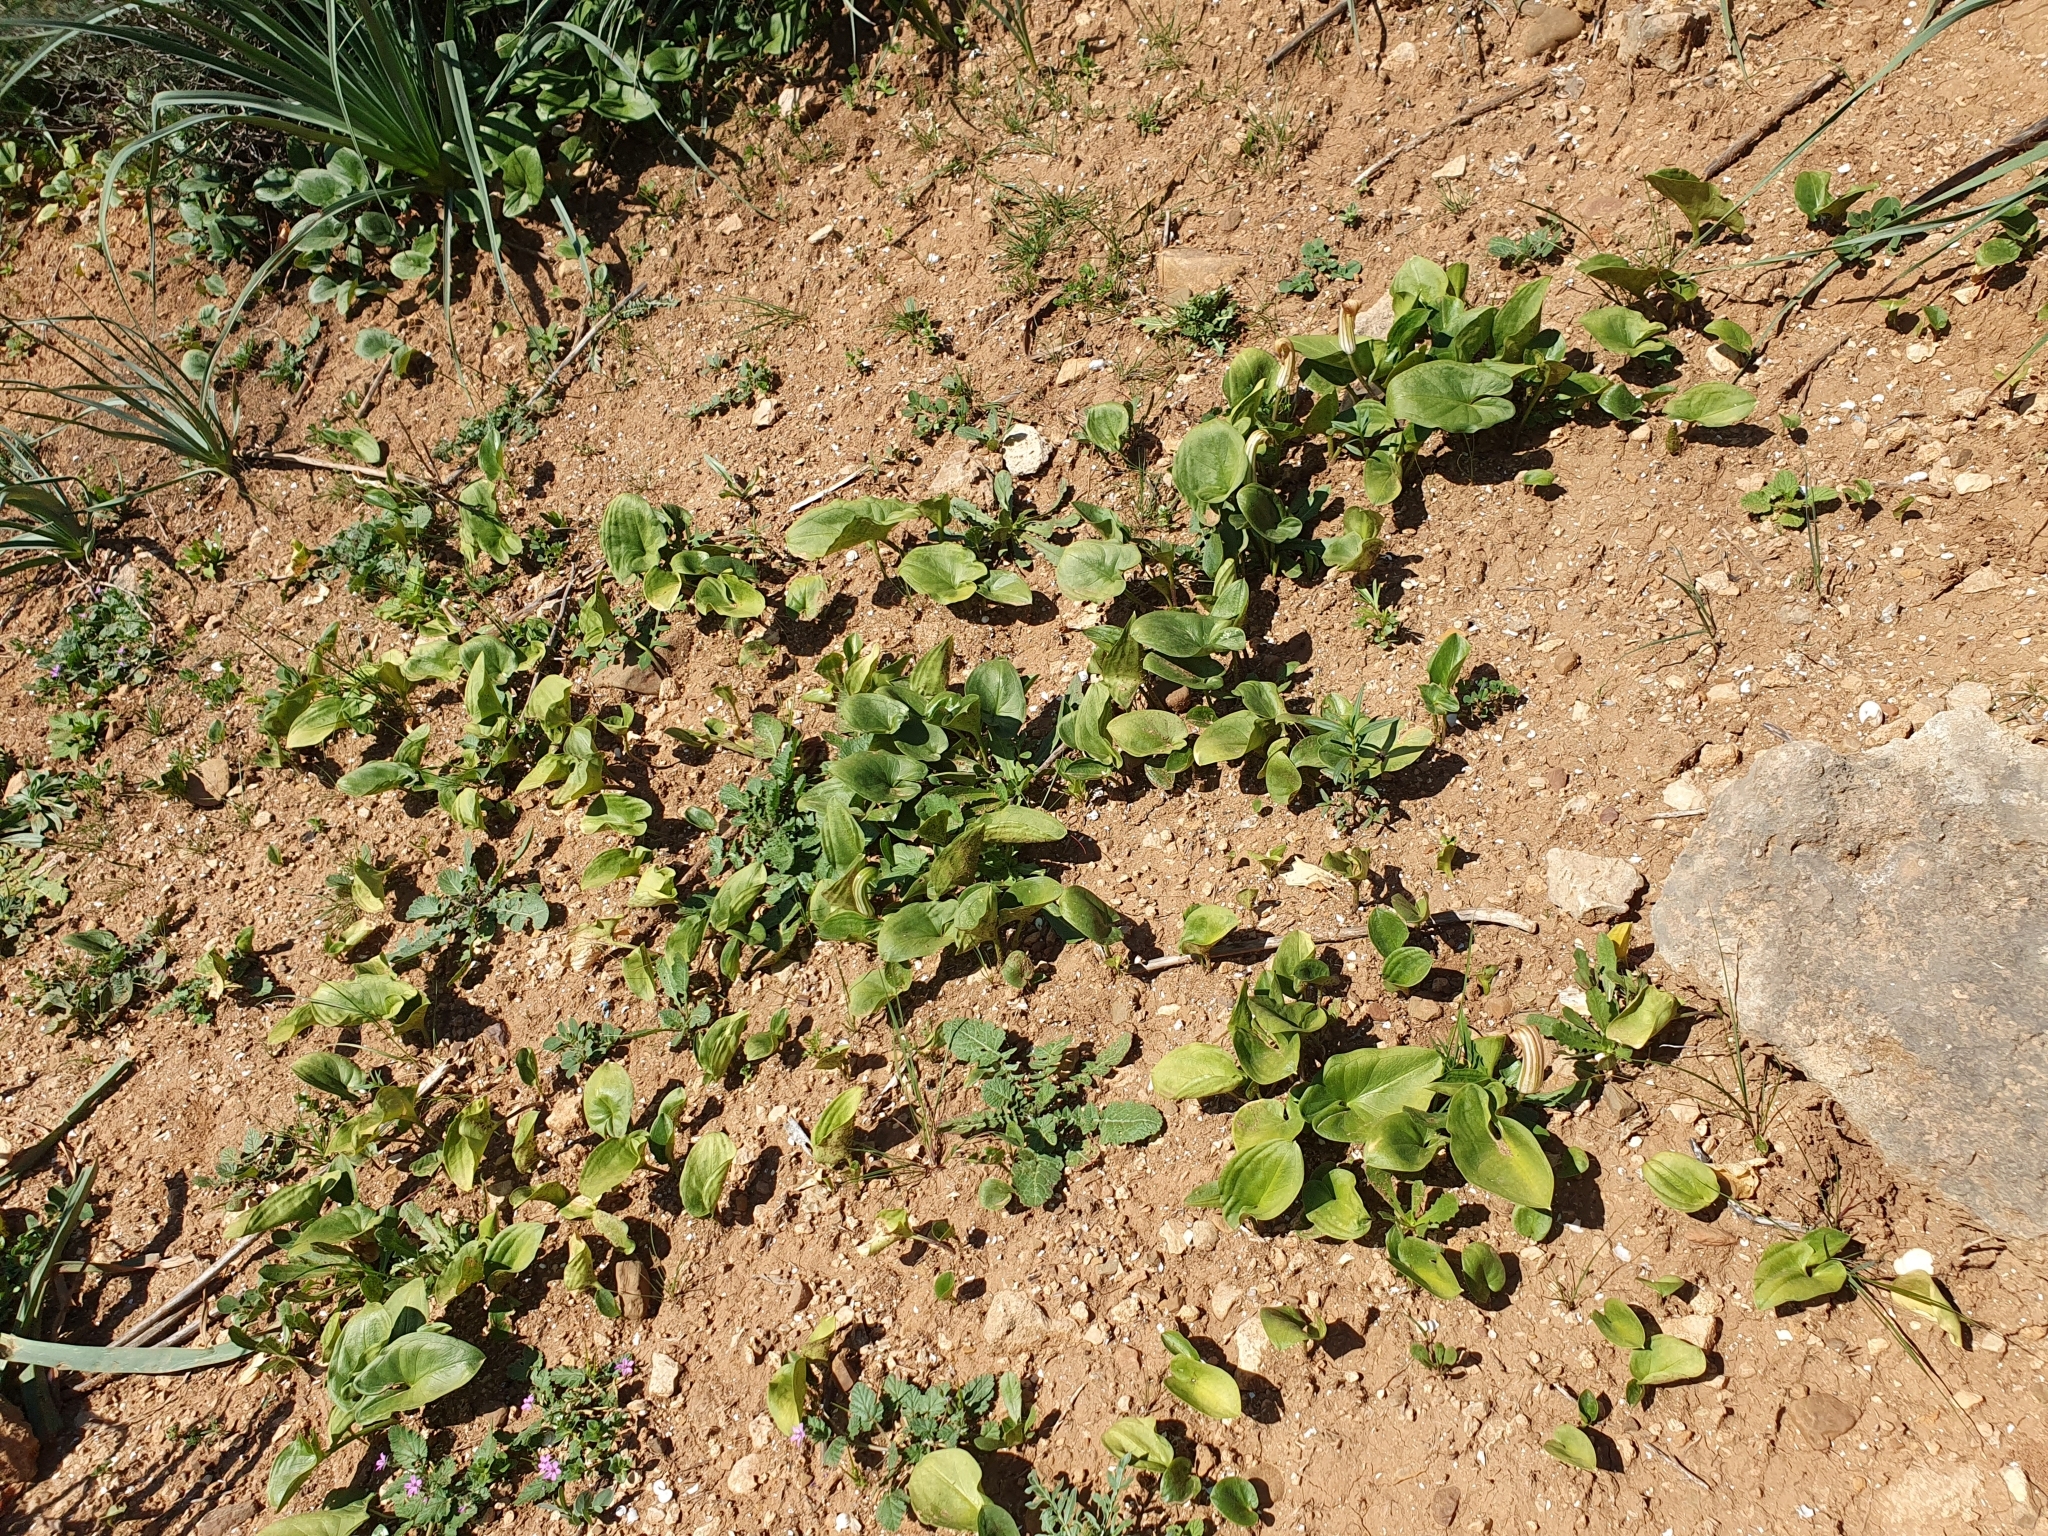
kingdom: Plantae
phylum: Tracheophyta
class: Liliopsida
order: Alismatales
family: Araceae
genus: Arisarum
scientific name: Arisarum vulgare
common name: Common arisarum
